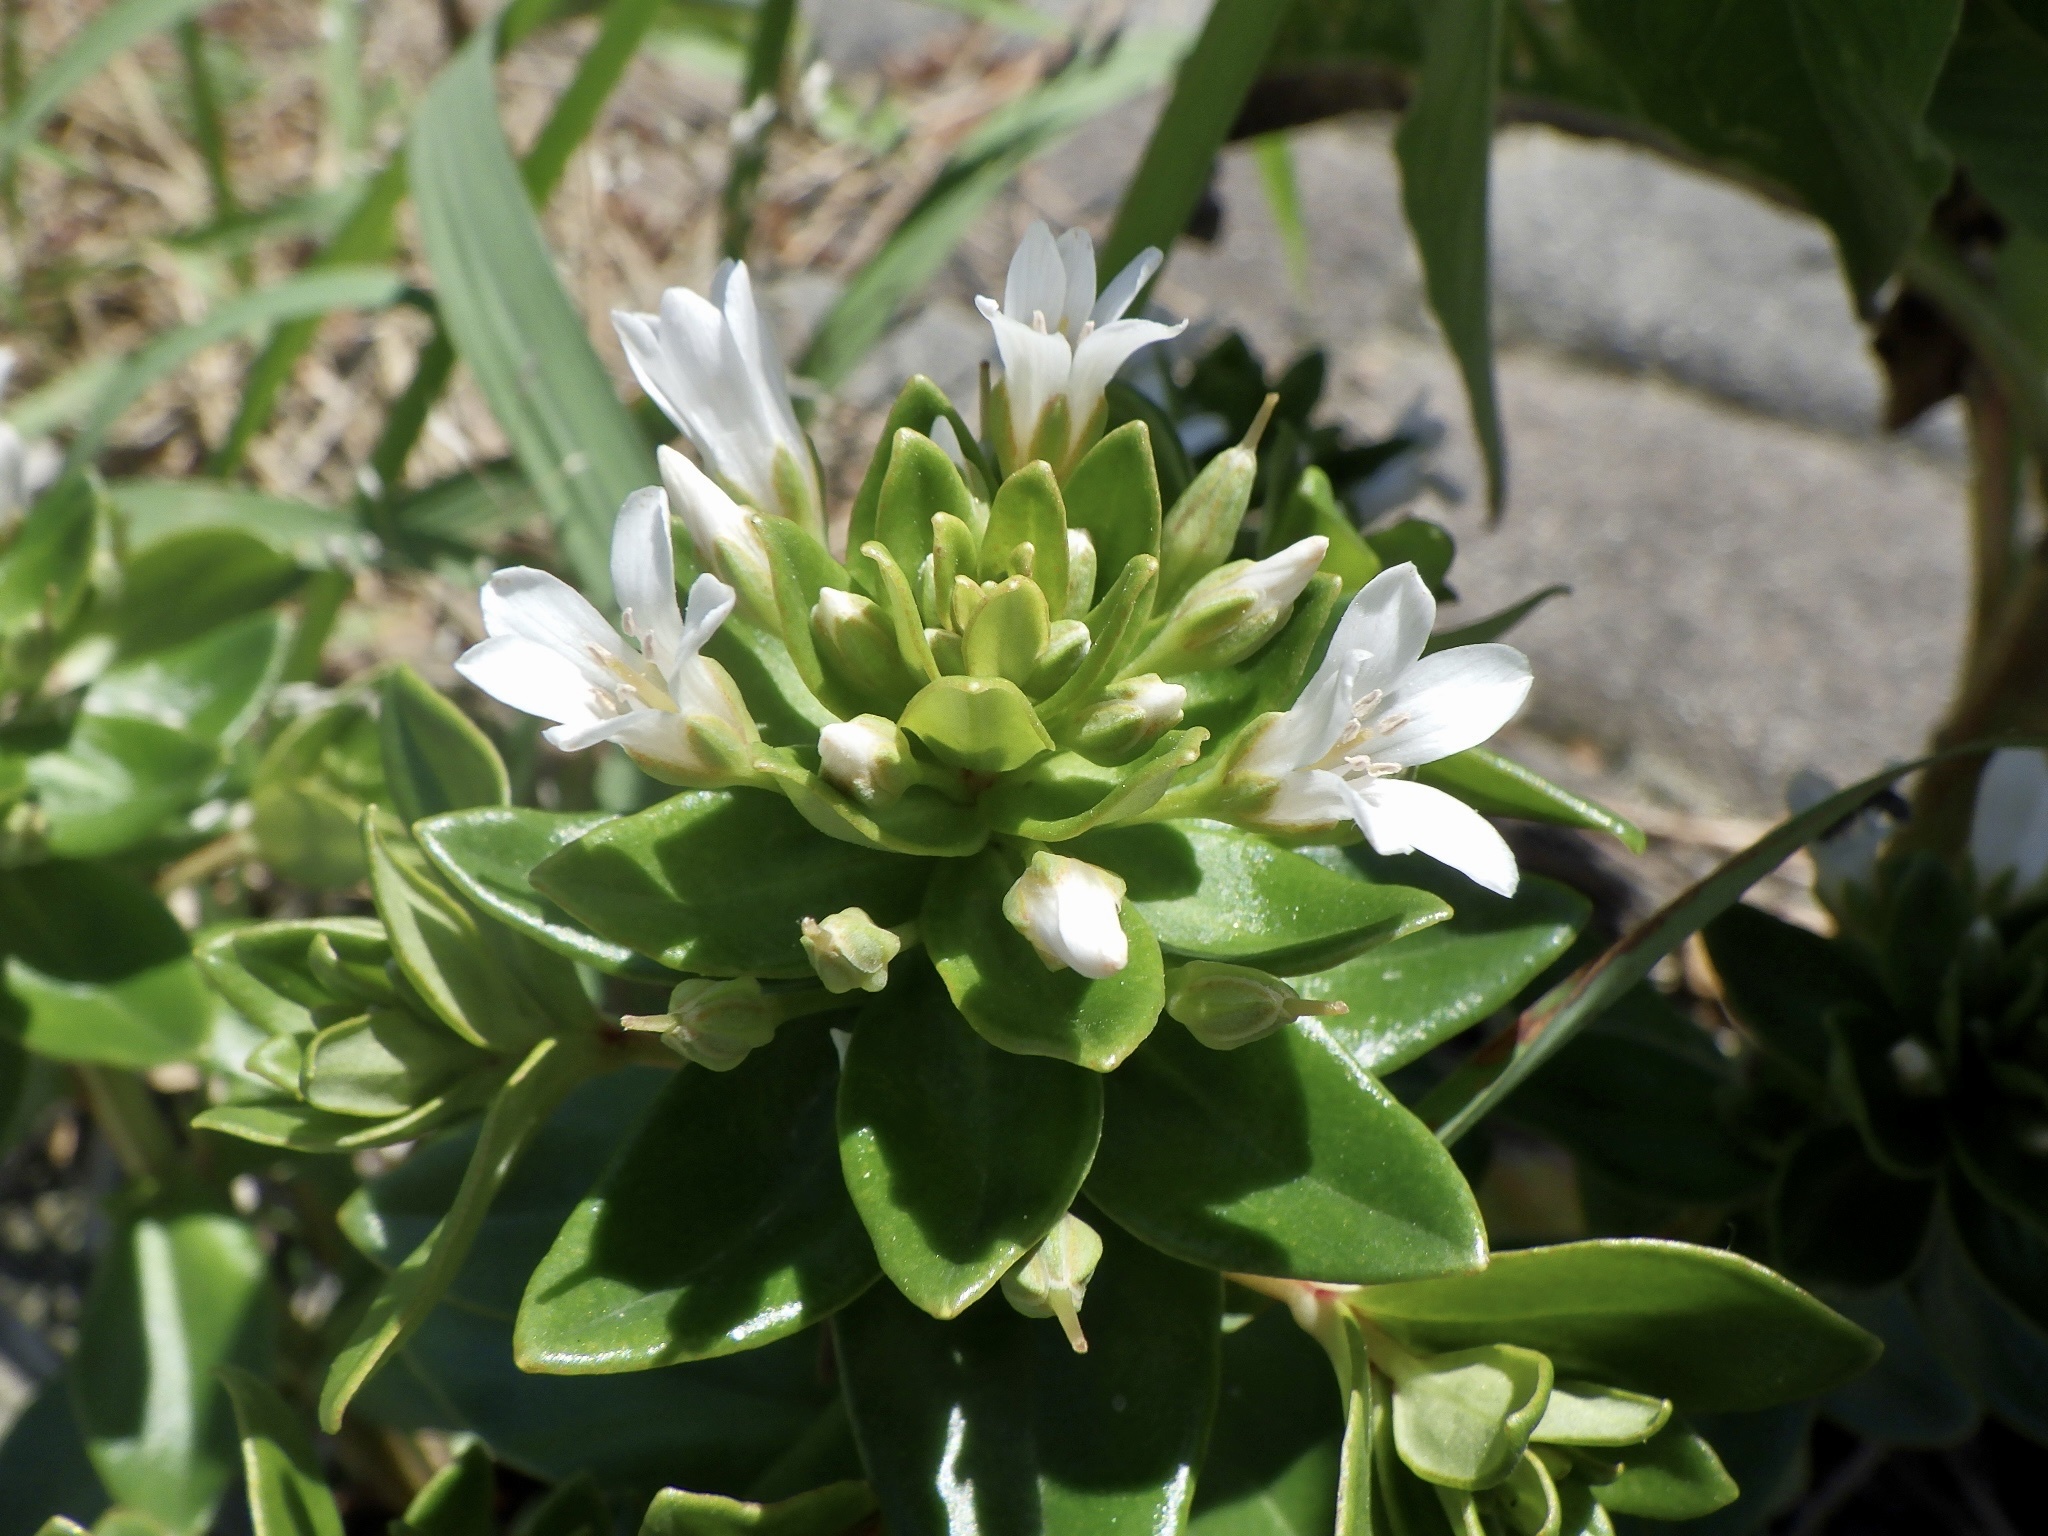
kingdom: Plantae
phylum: Tracheophyta
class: Magnoliopsida
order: Ericales
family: Primulaceae
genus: Lysimachia
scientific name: Lysimachia mauritiana
